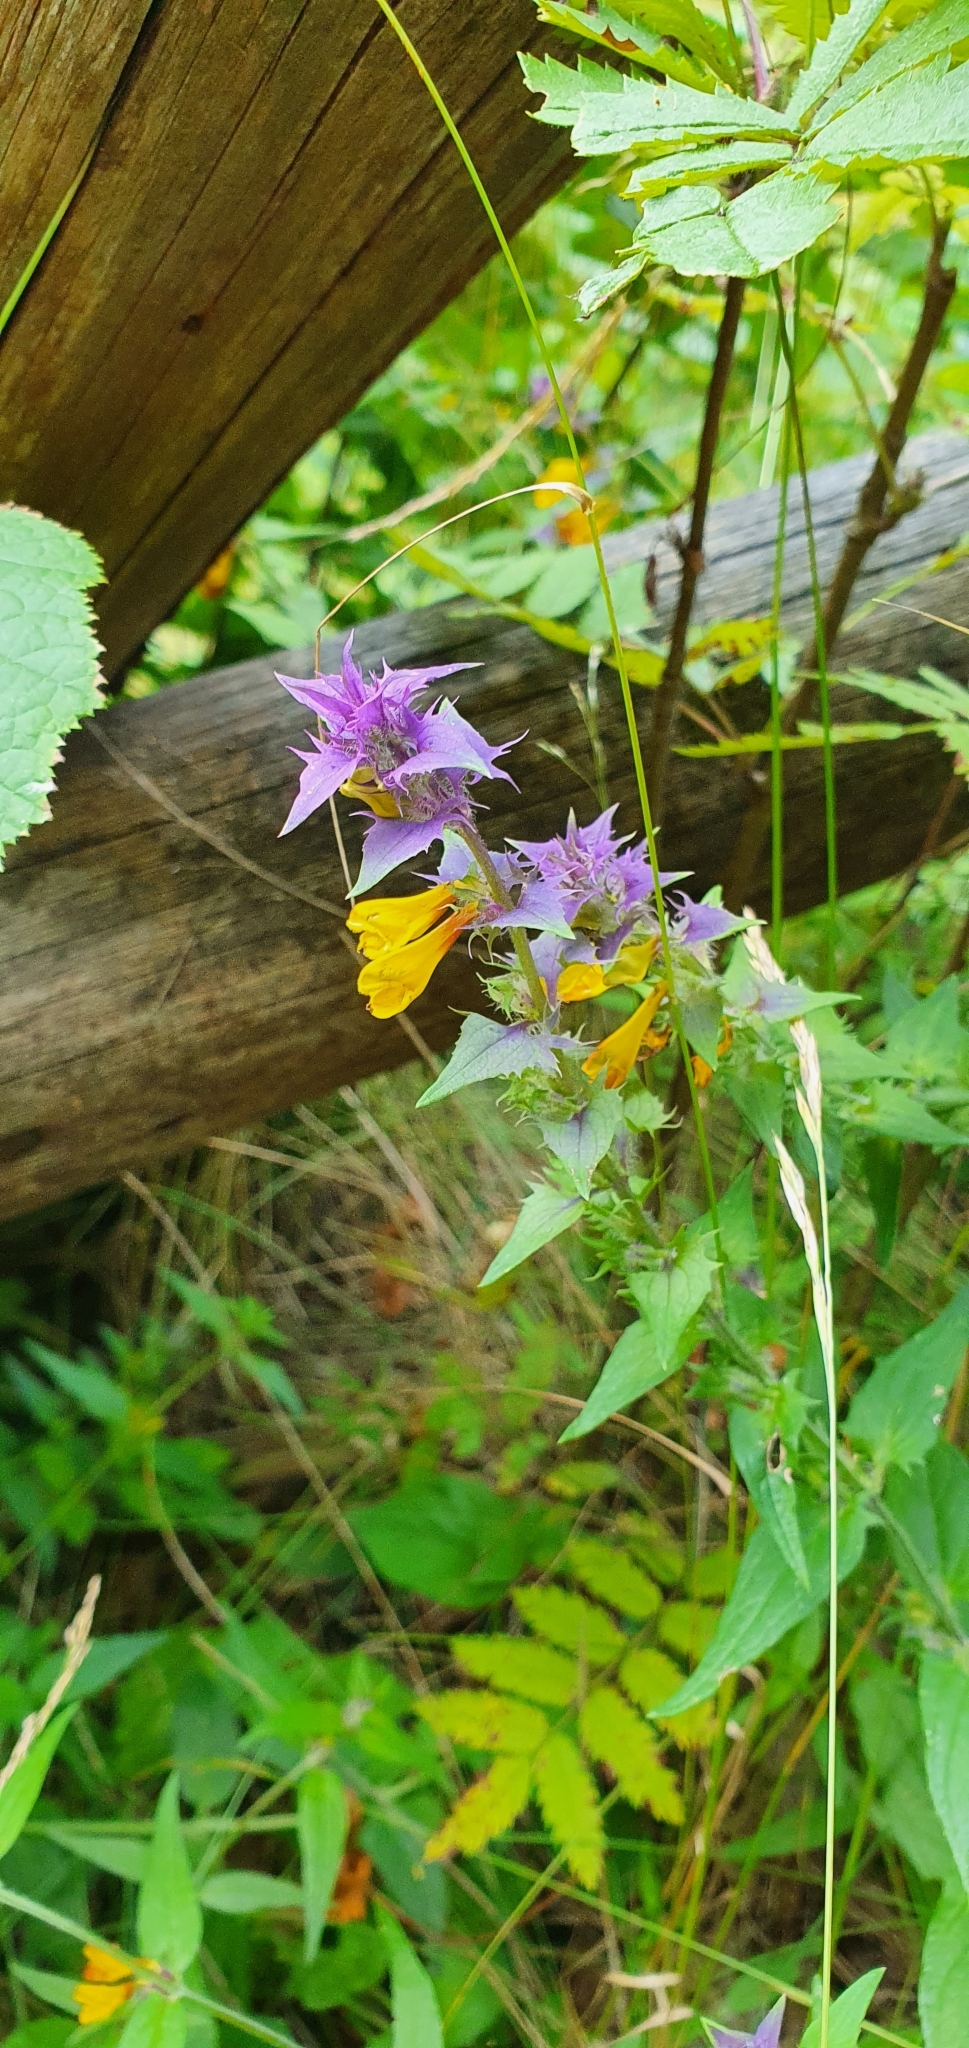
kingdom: Plantae
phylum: Tracheophyta
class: Magnoliopsida
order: Lamiales
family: Orobanchaceae
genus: Melampyrum
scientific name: Melampyrum nemorosum
